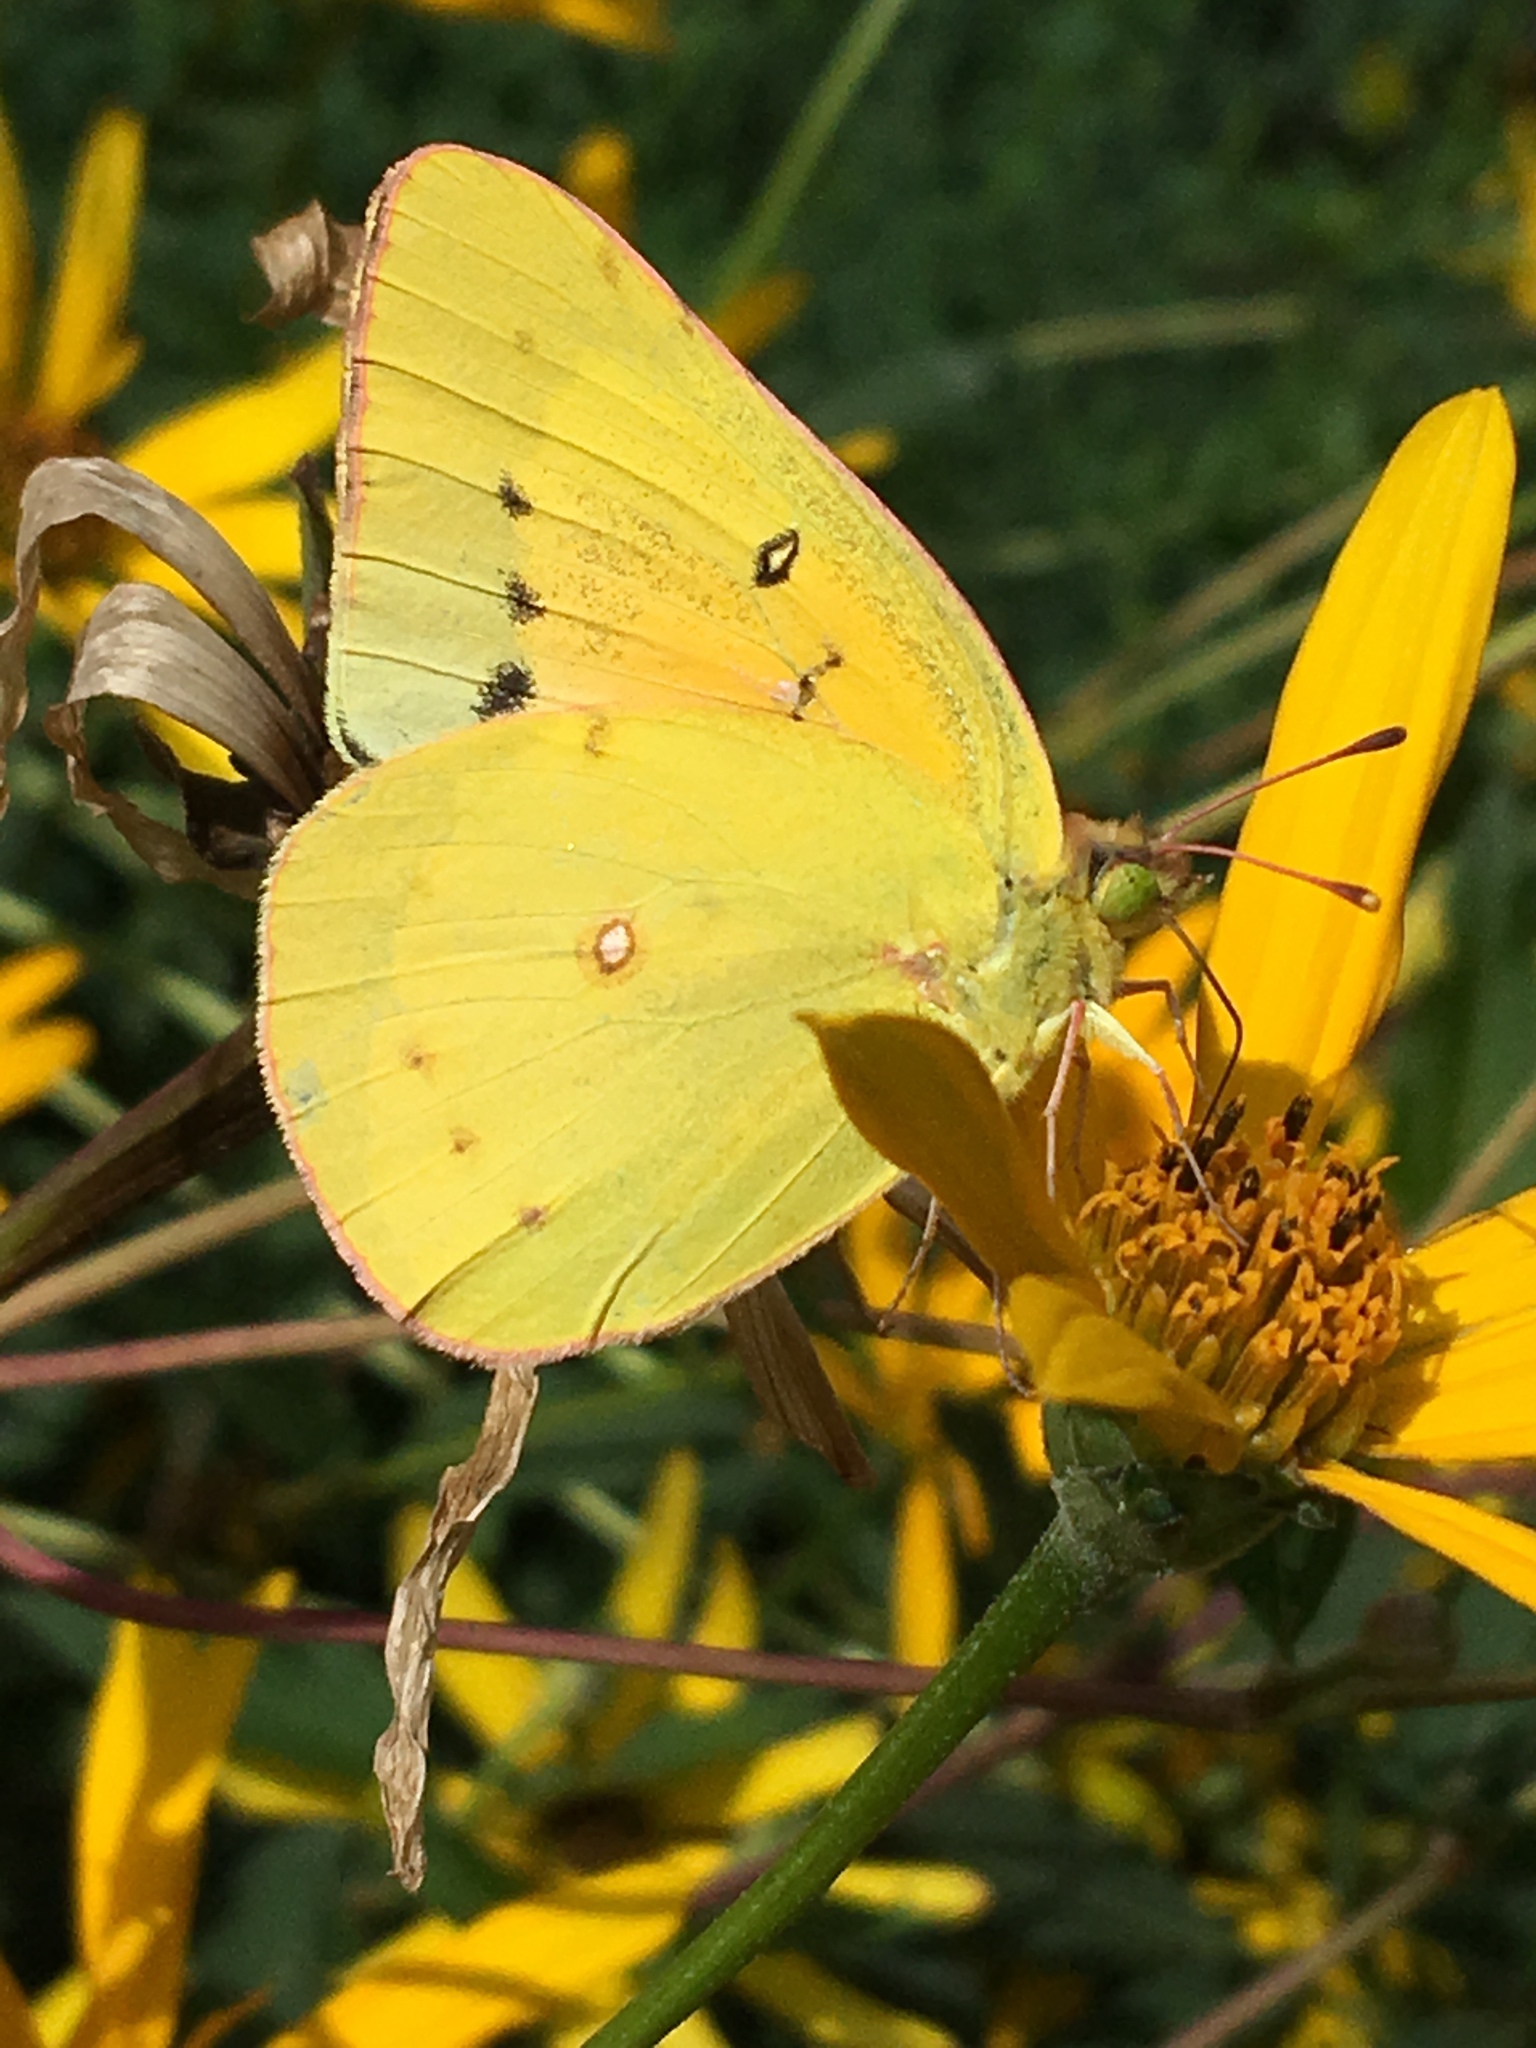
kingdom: Animalia
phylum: Arthropoda
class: Insecta
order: Lepidoptera
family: Pieridae
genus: Colias
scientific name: Colias eurytheme
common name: Alfalfa butterfly
